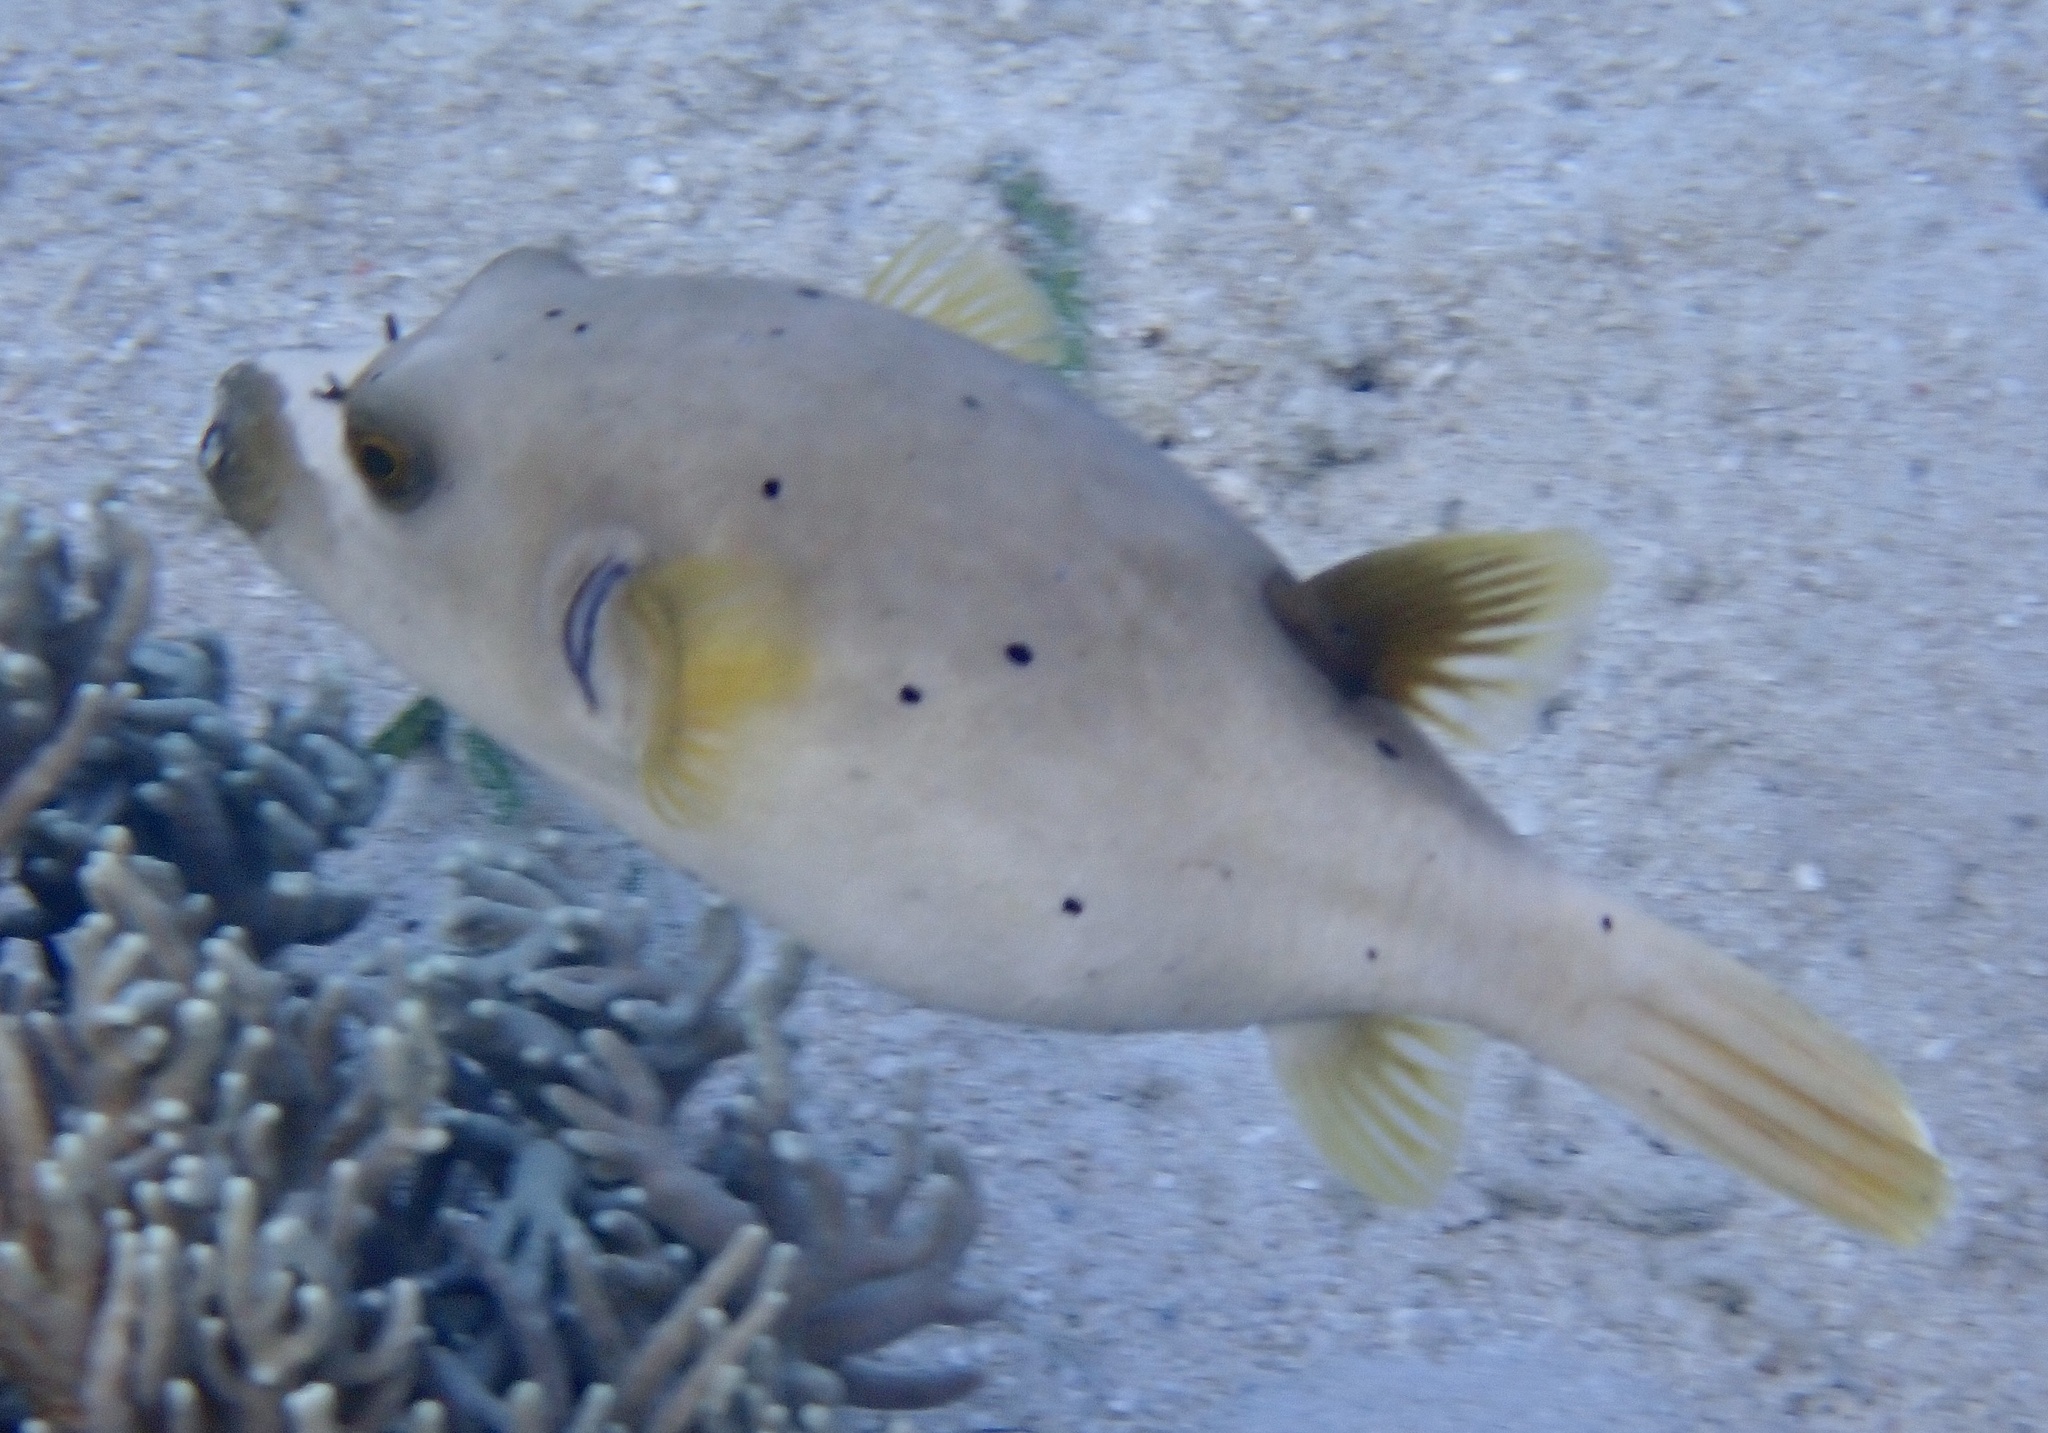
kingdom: Animalia
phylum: Chordata
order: Tetraodontiformes
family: Tetraodontidae
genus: Arothron
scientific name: Arothron nigropunctatus
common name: Black spotted blow fish
